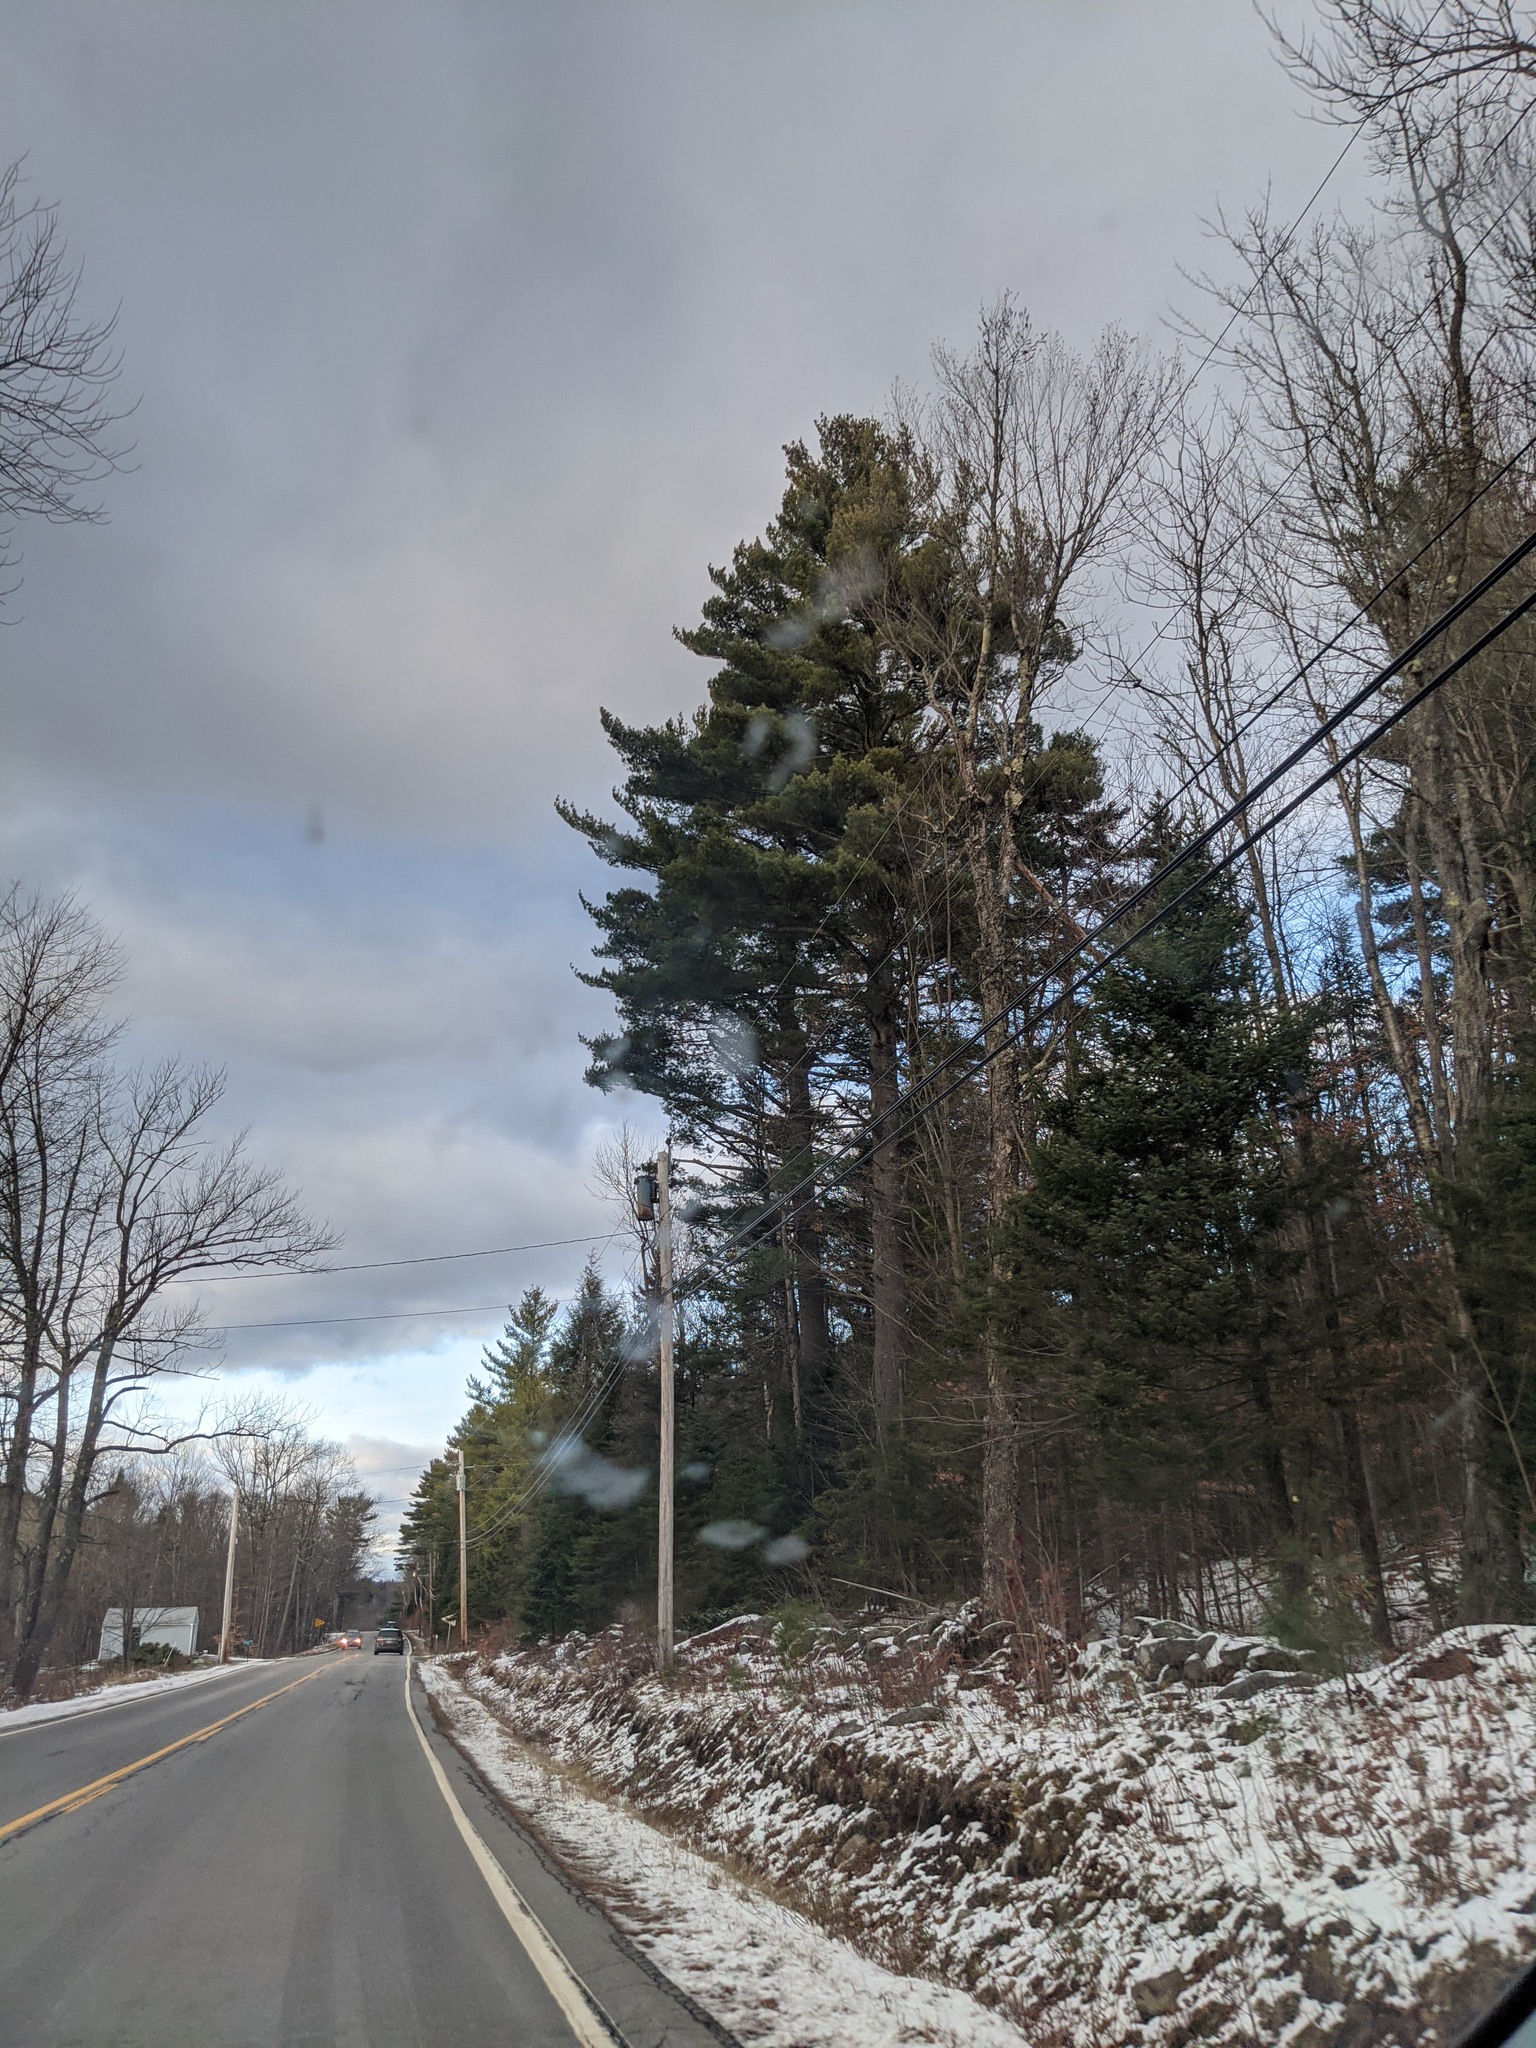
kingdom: Plantae
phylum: Tracheophyta
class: Pinopsida
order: Pinales
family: Pinaceae
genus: Pinus
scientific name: Pinus strobus
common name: Weymouth pine
